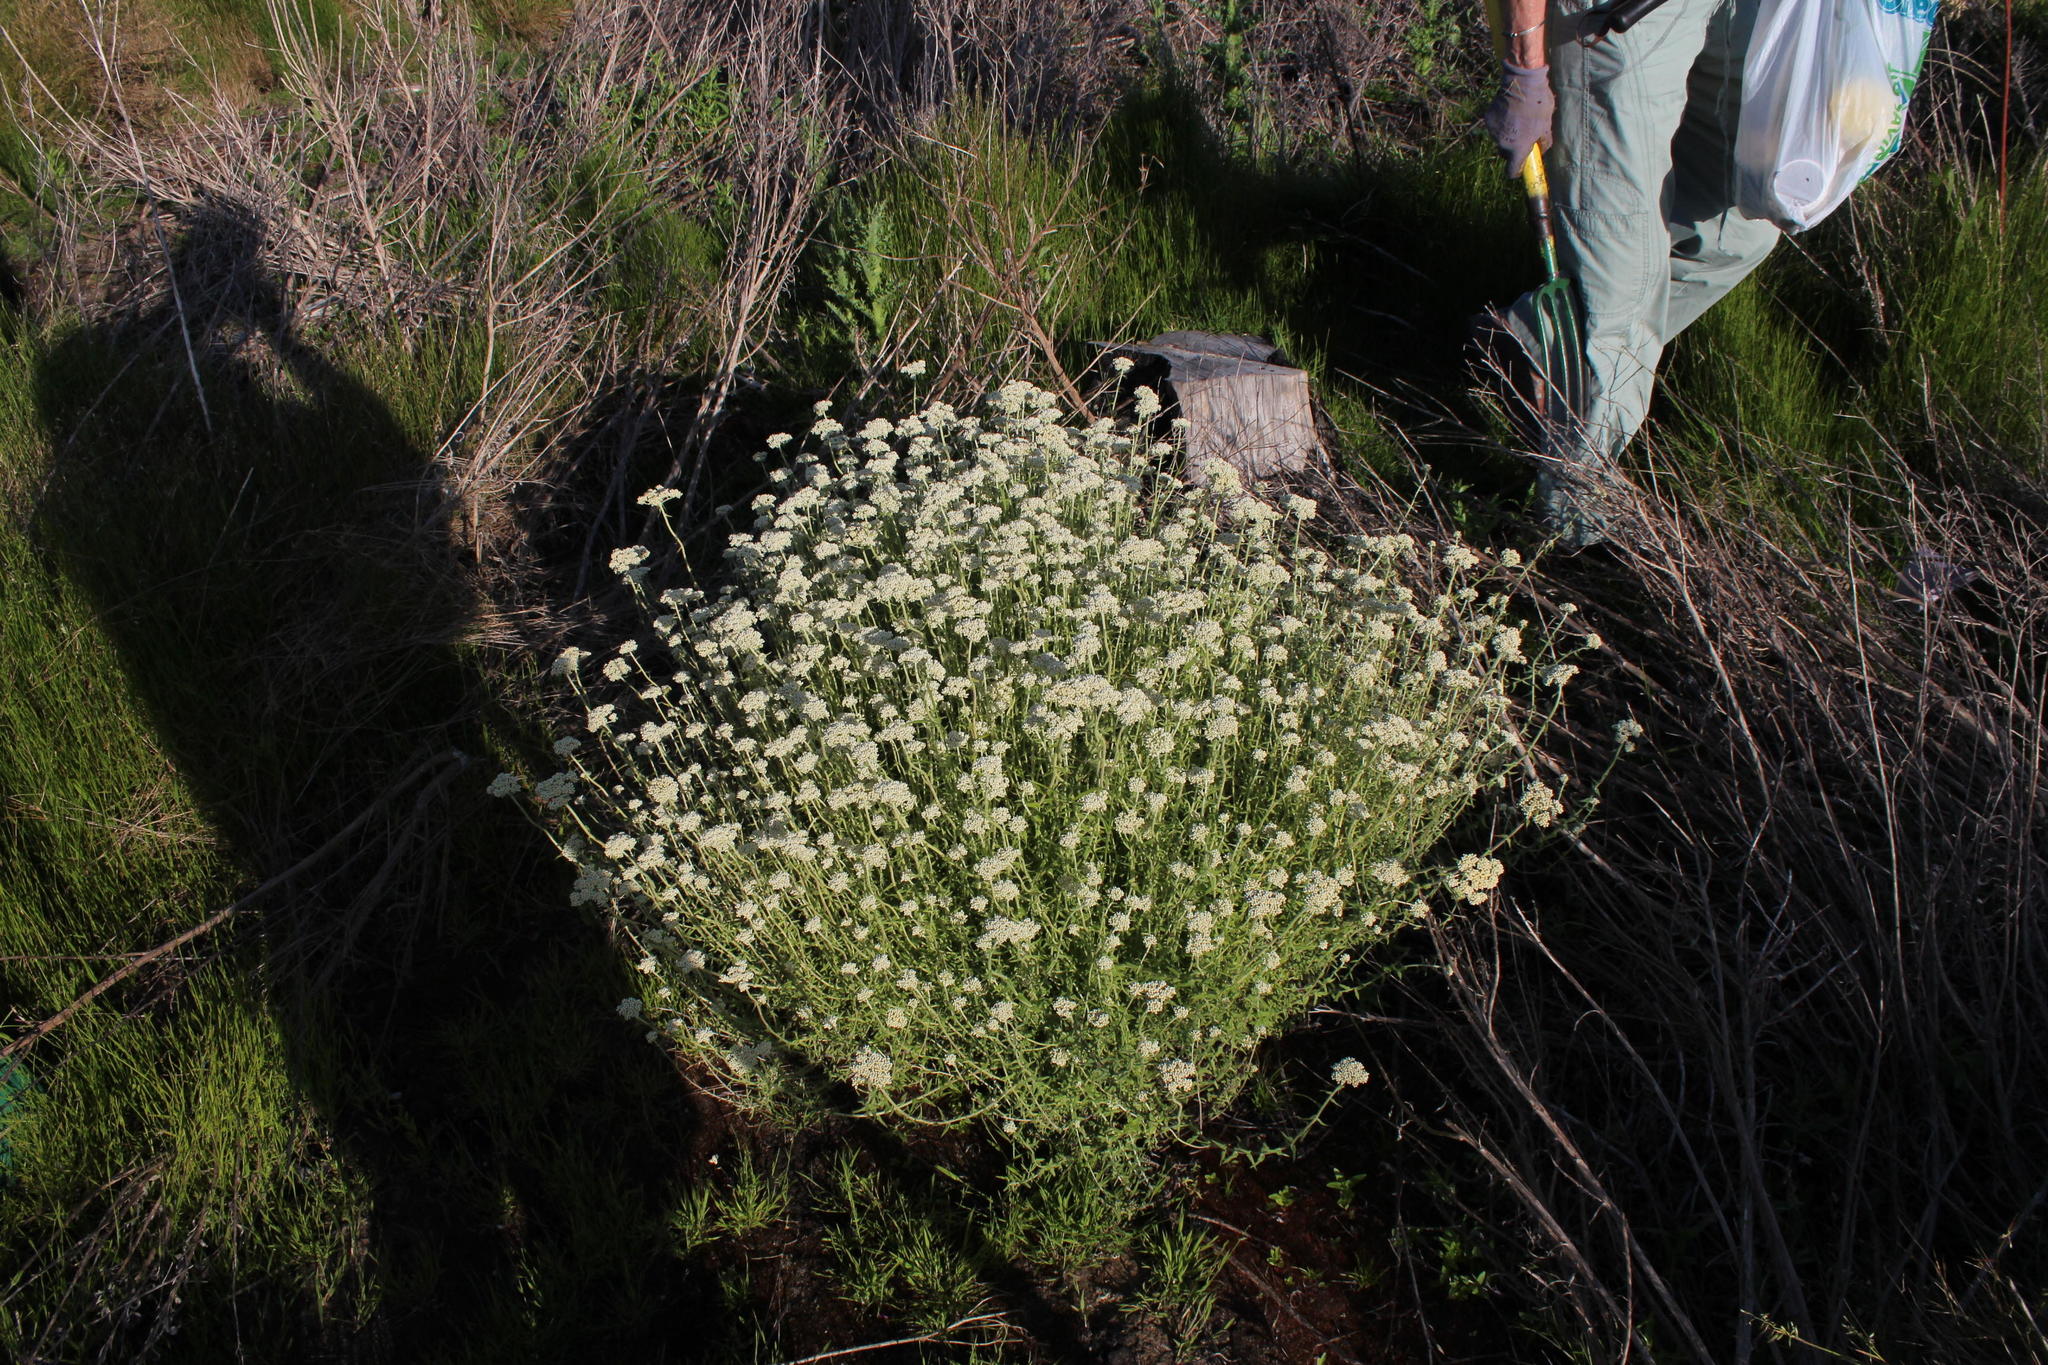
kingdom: Plantae
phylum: Tracheophyta
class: Magnoliopsida
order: Asterales
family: Asteraceae
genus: Helichrysum
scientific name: Helichrysum dasyanthum
